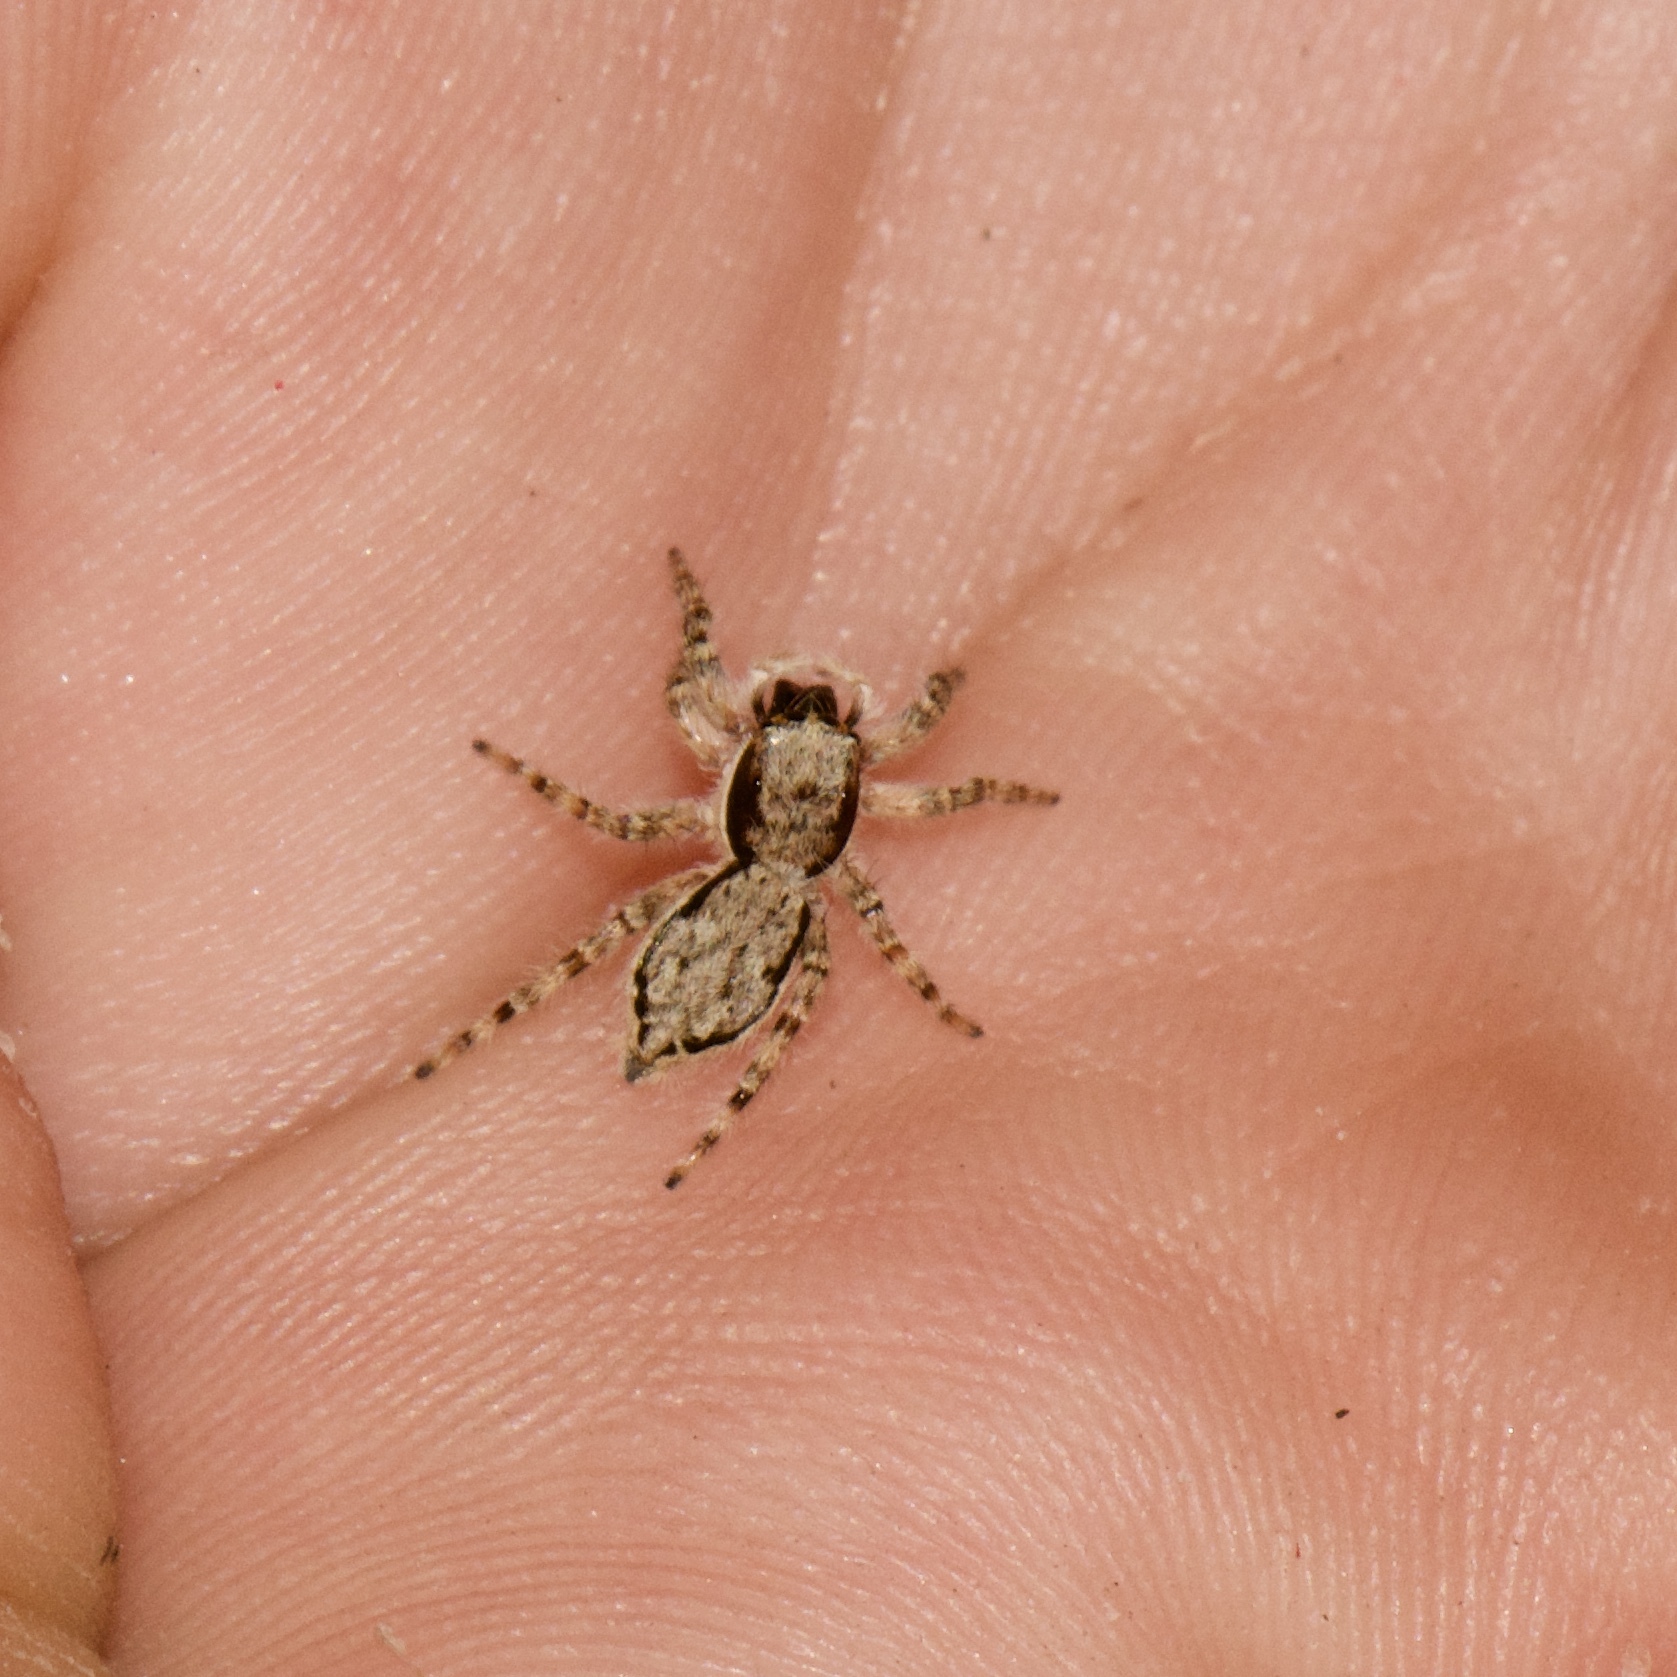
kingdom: Animalia
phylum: Arthropoda
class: Arachnida
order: Araneae
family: Salticidae
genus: Menemerus
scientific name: Menemerus bivittatus
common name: Gray wall jumper
